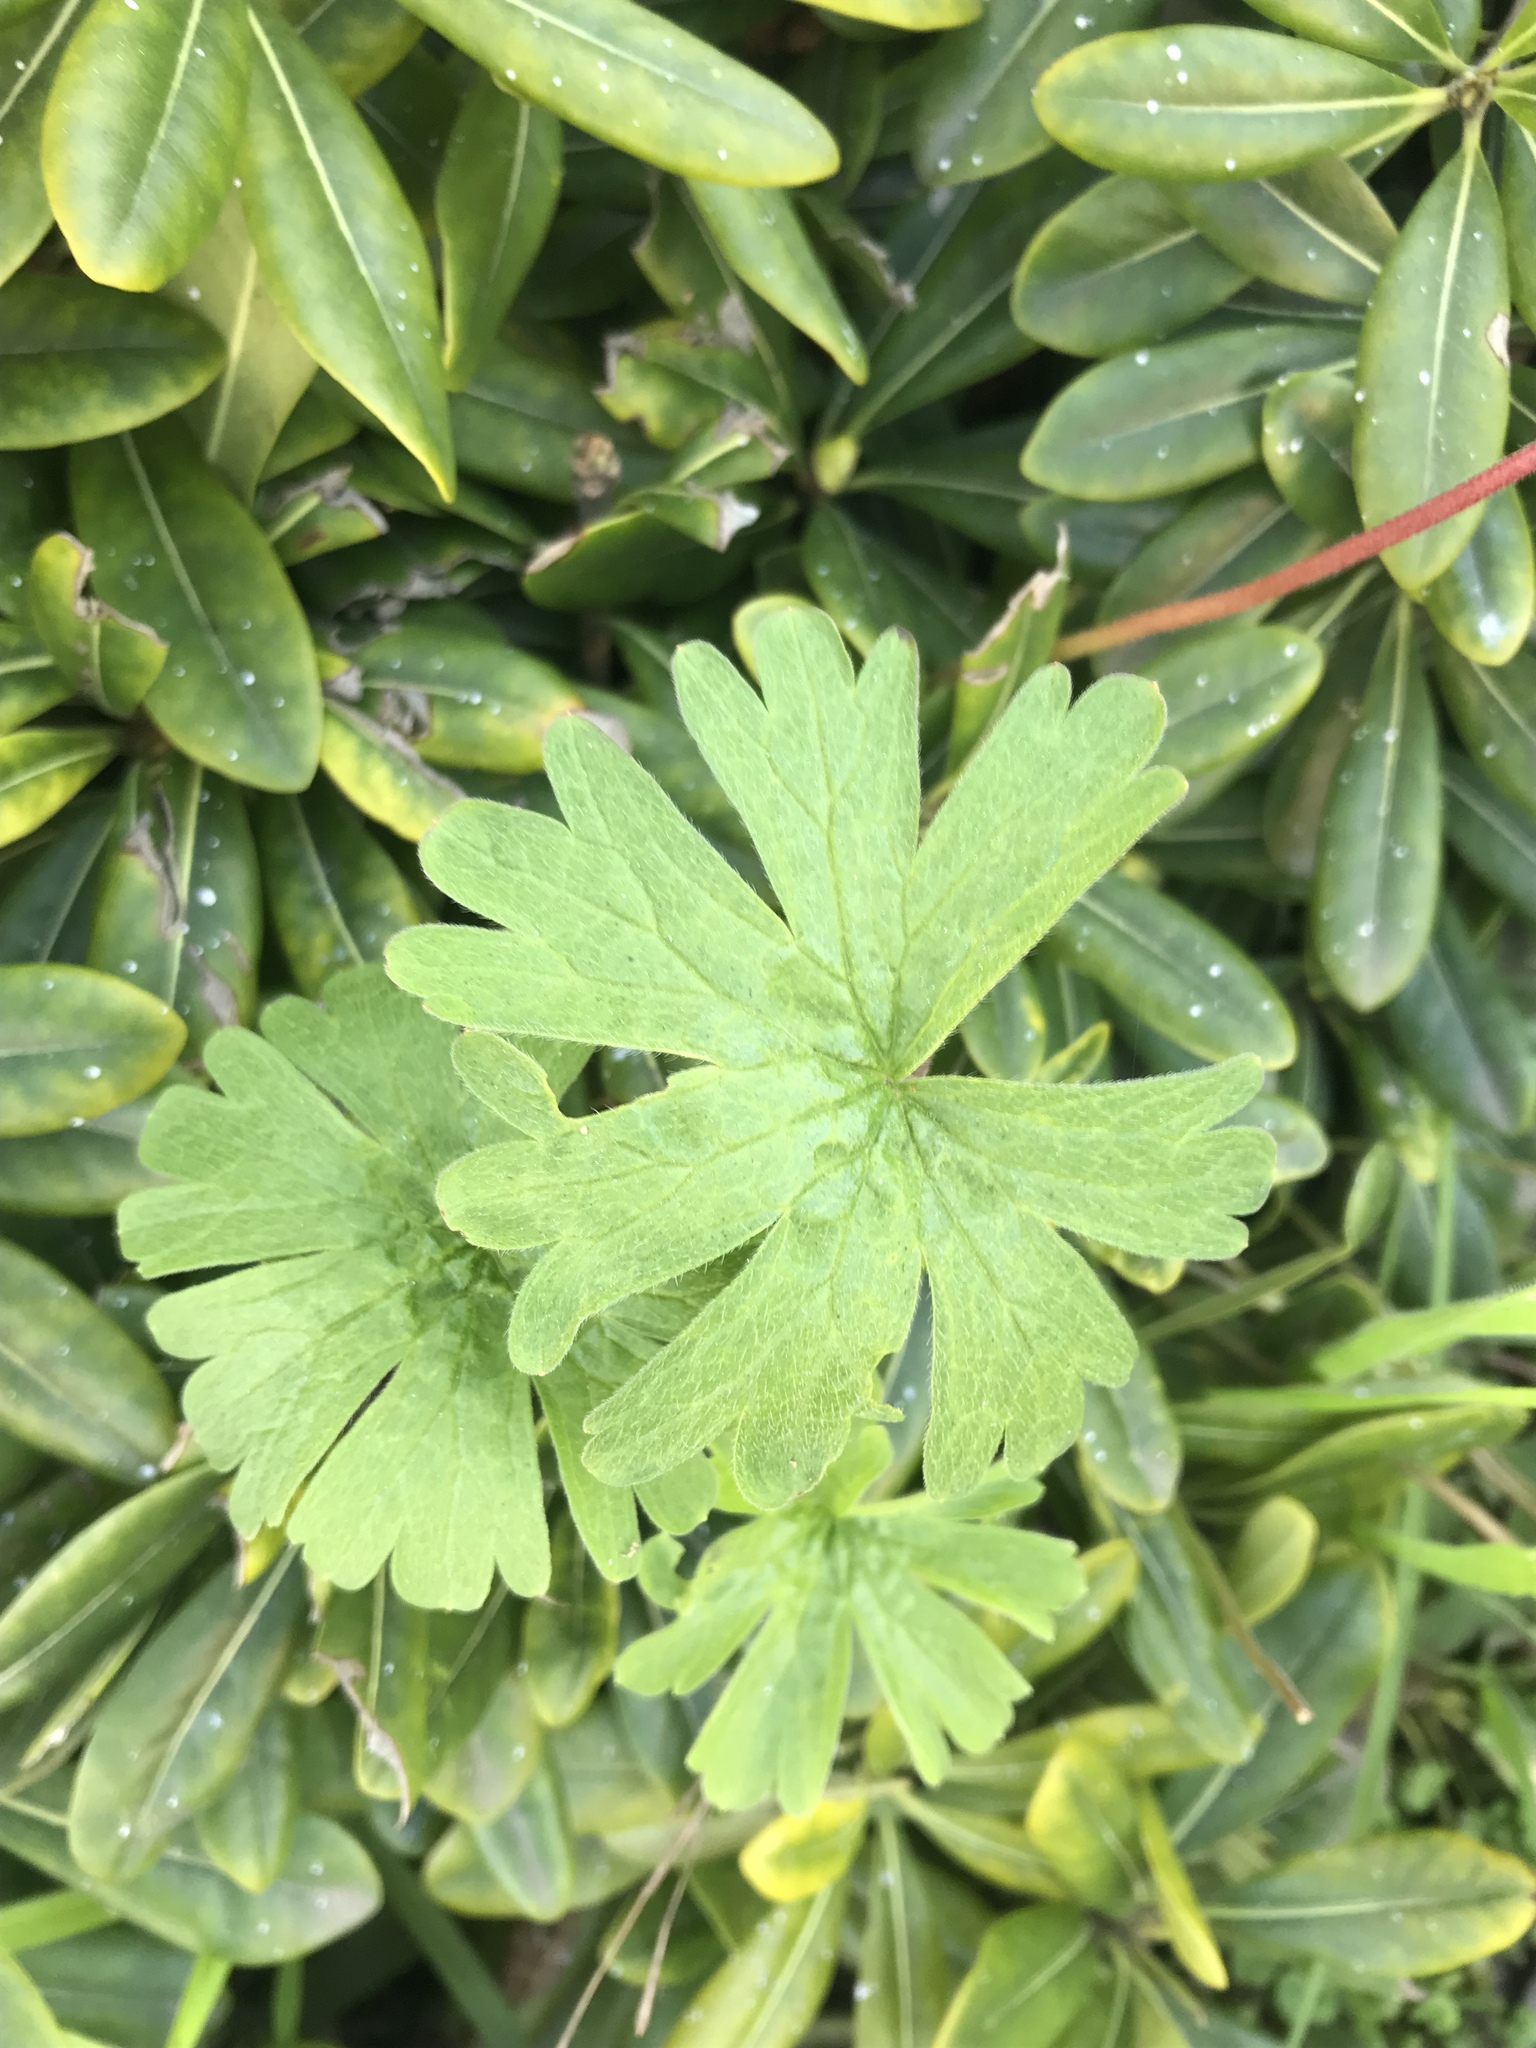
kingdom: Plantae
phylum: Tracheophyta
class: Magnoliopsida
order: Geraniales
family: Geraniaceae
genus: Geranium
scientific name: Geranium
